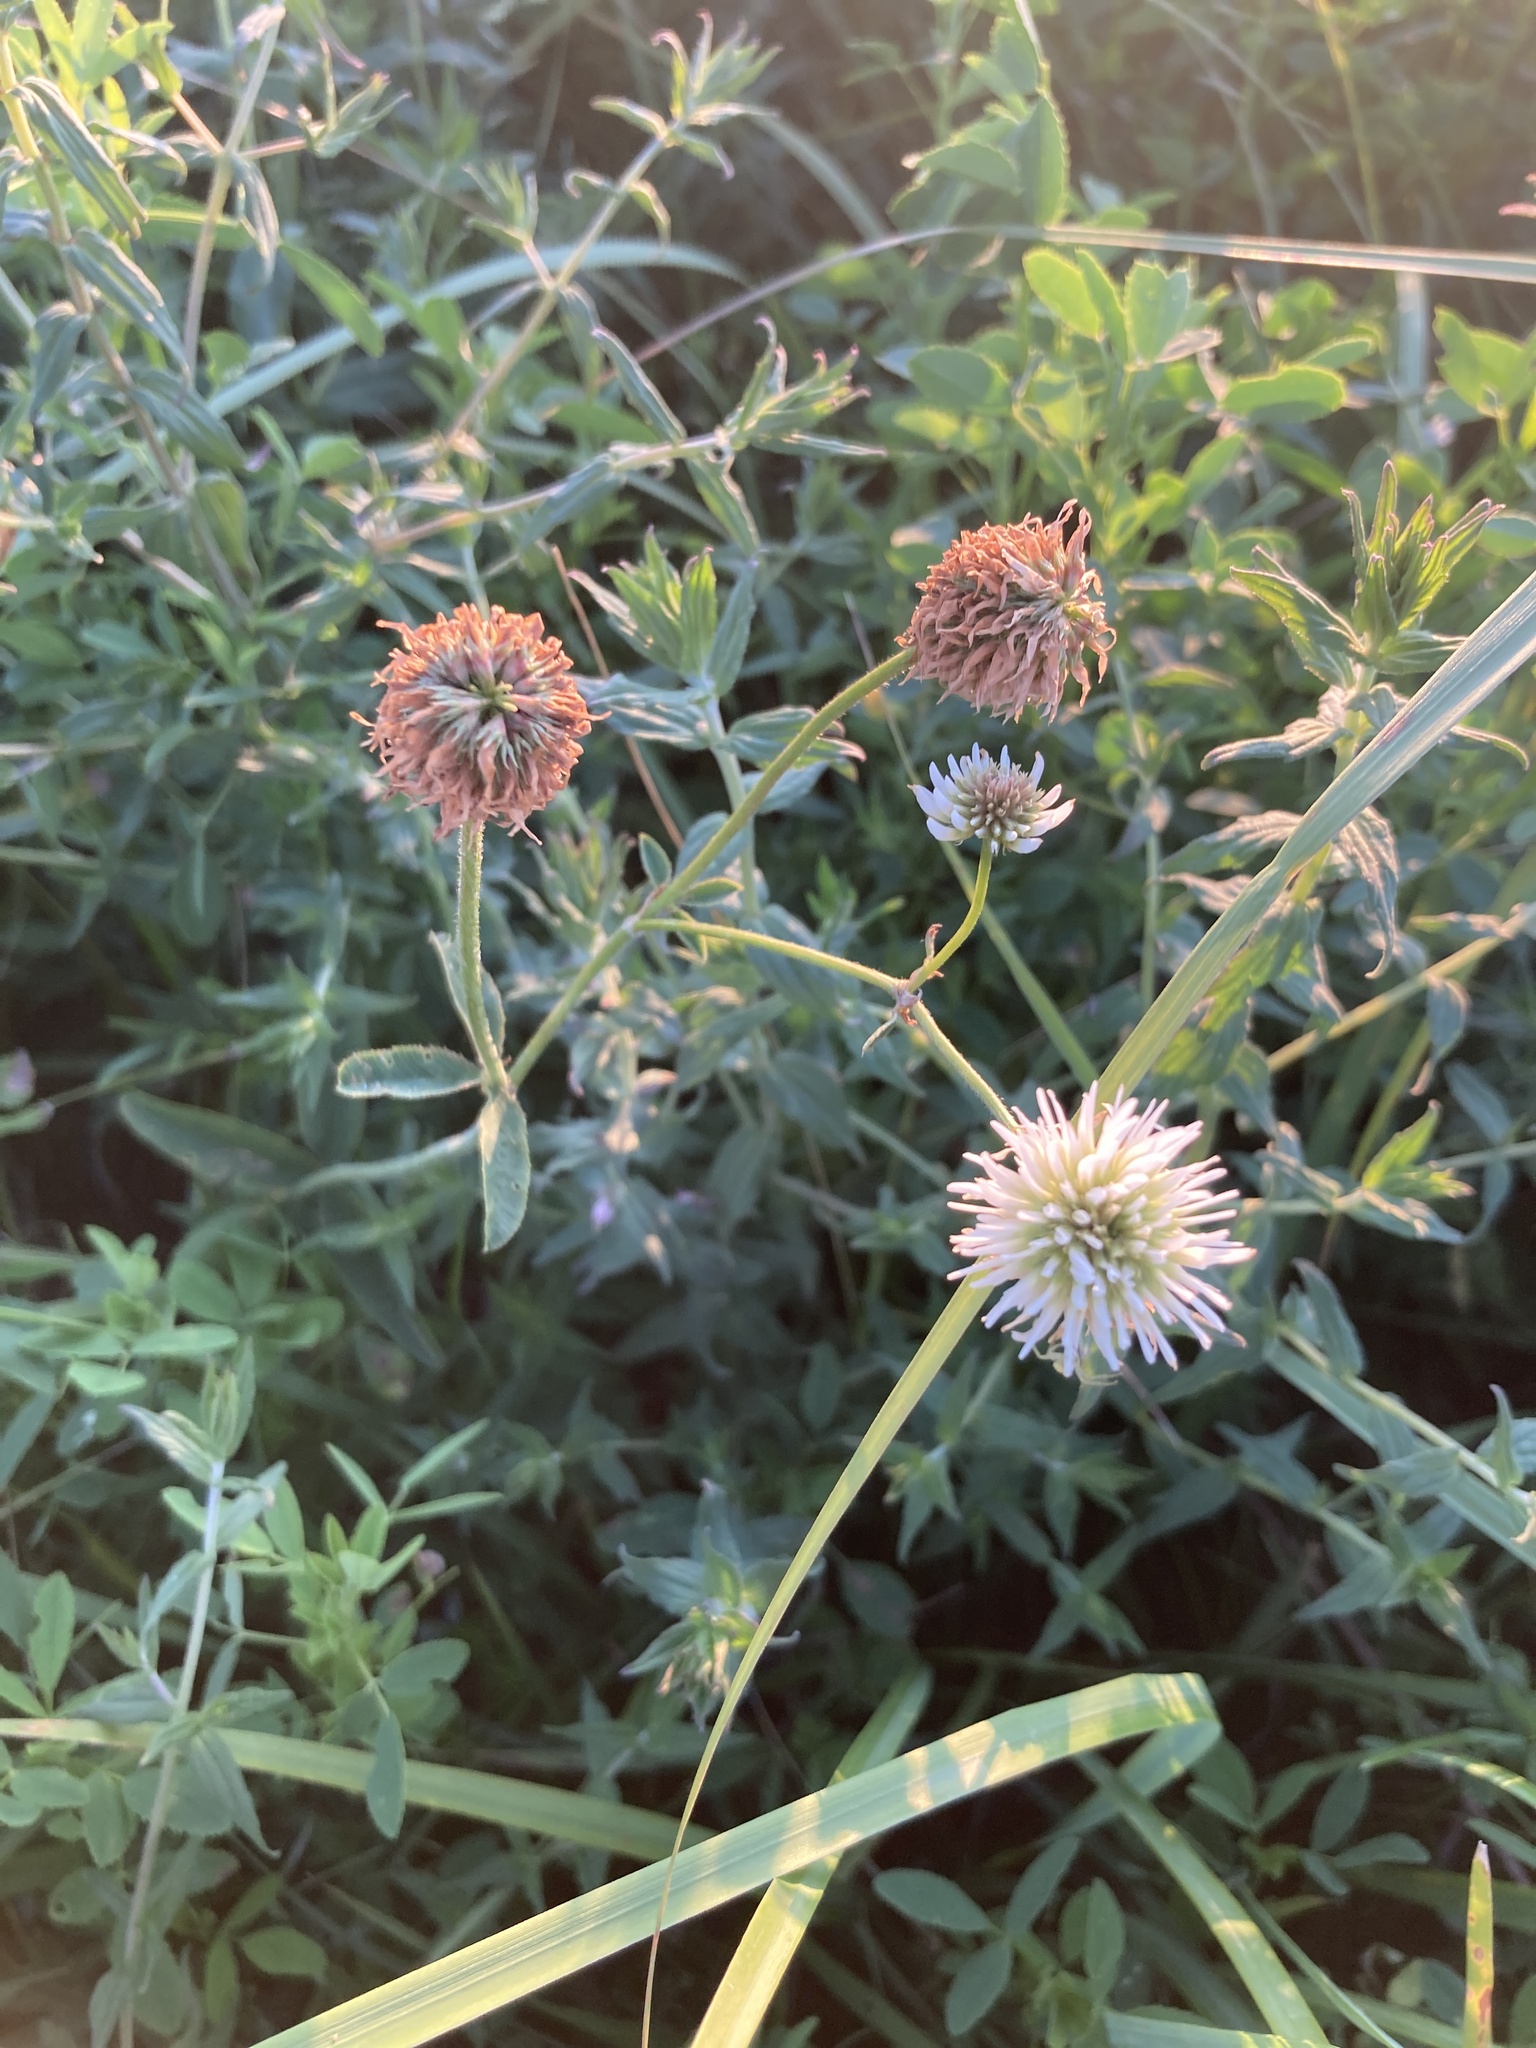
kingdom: Plantae
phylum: Tracheophyta
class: Magnoliopsida
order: Fabales
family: Fabaceae
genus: Trifolium
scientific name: Trifolium montanum
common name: Mountain clover
